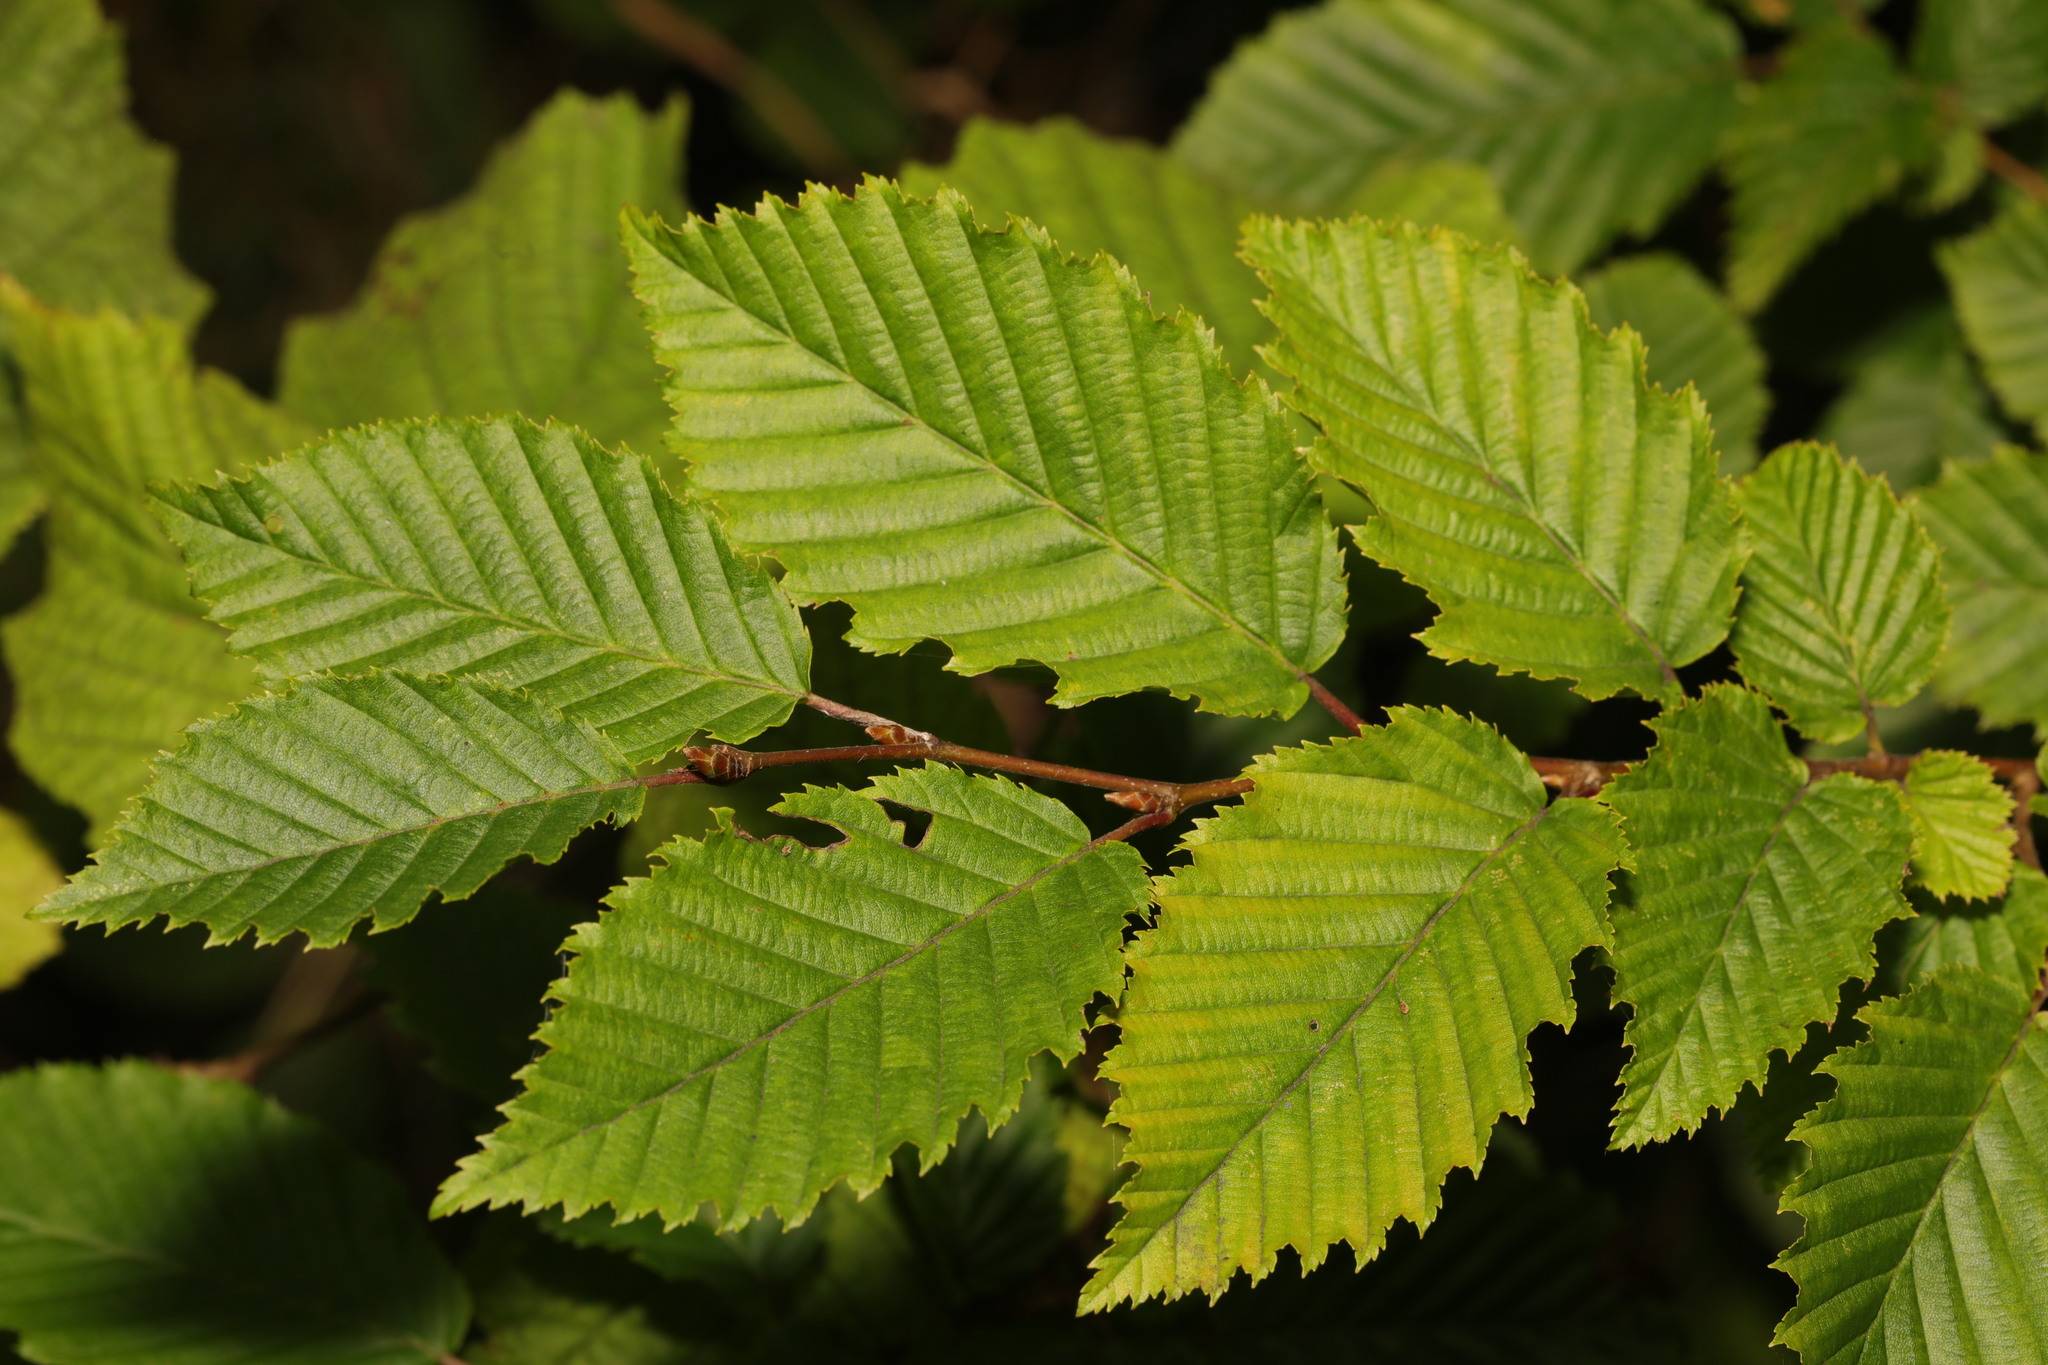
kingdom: Plantae
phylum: Tracheophyta
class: Magnoliopsida
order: Fagales
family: Betulaceae
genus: Carpinus
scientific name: Carpinus betulus
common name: Hornbeam
